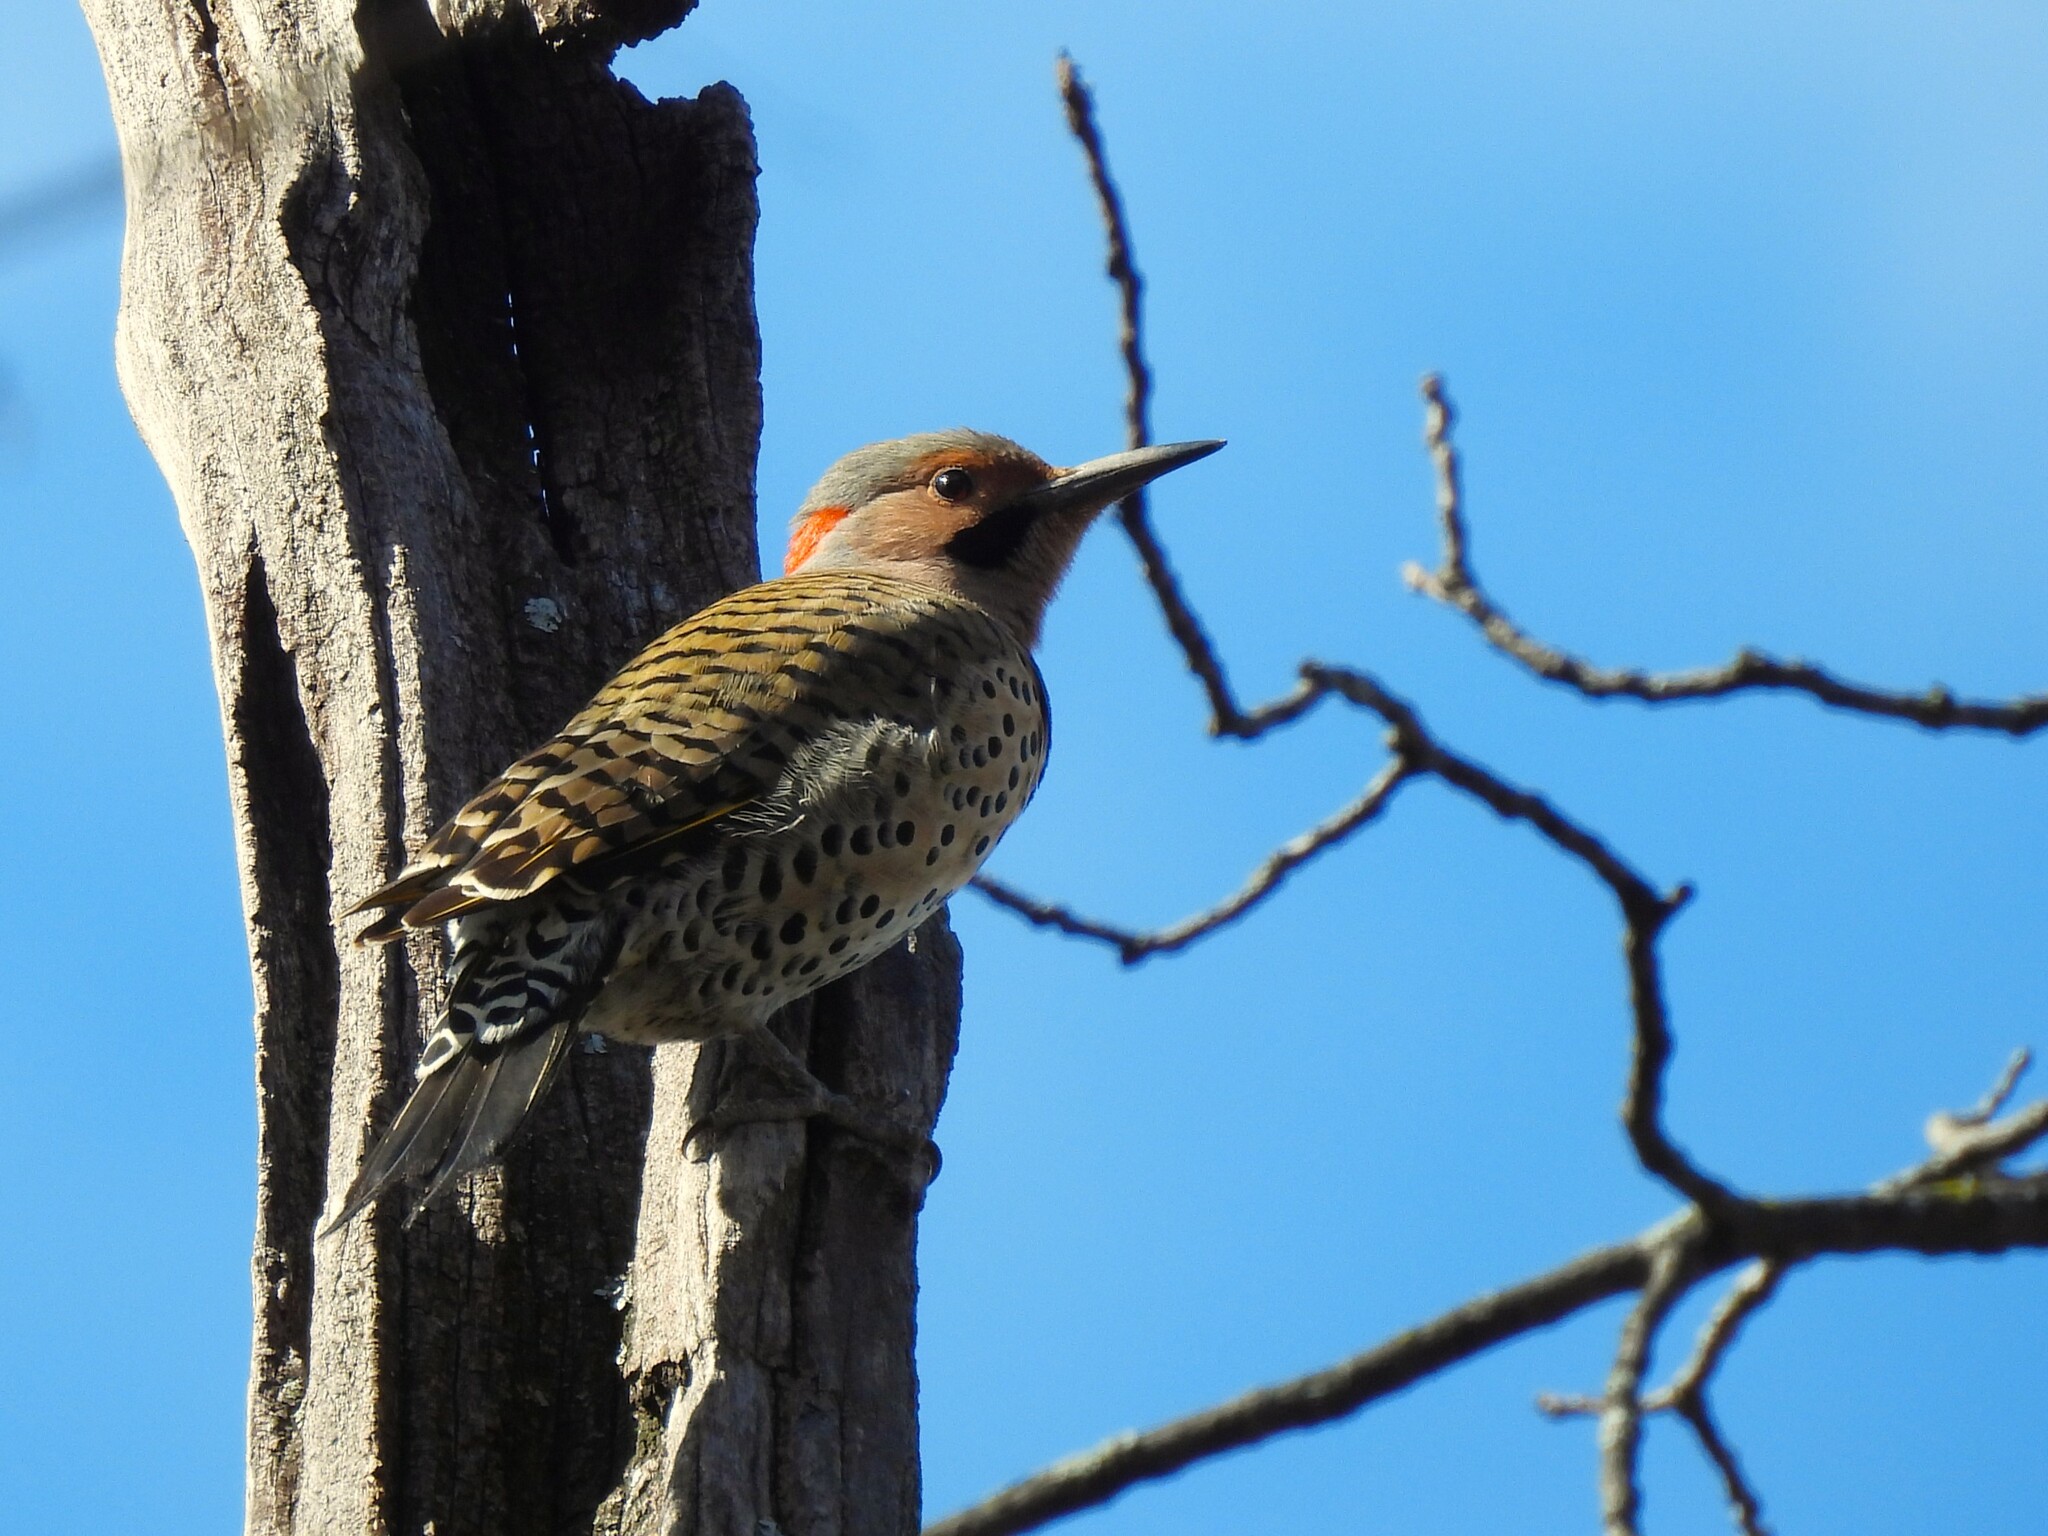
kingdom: Animalia
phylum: Chordata
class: Aves
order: Piciformes
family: Picidae
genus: Colaptes
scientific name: Colaptes auratus
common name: Northern flicker
